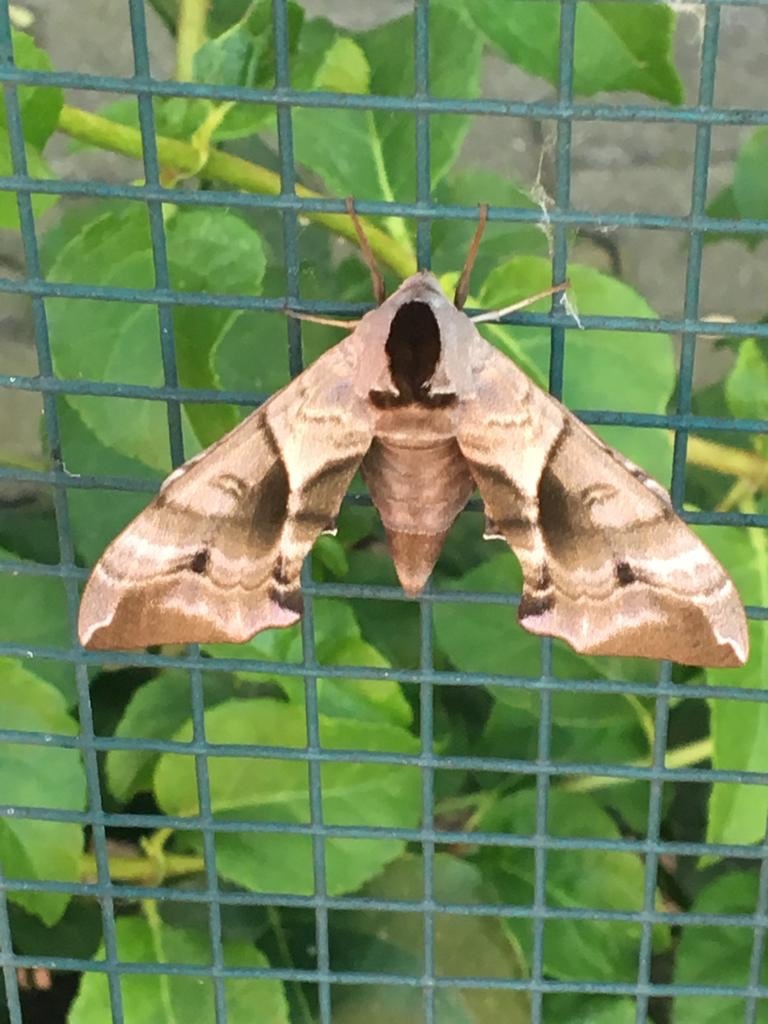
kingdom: Animalia
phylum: Arthropoda
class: Insecta
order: Lepidoptera
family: Sphingidae
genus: Smerinthus
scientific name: Smerinthus ocellata
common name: Eyed hawk-moth
